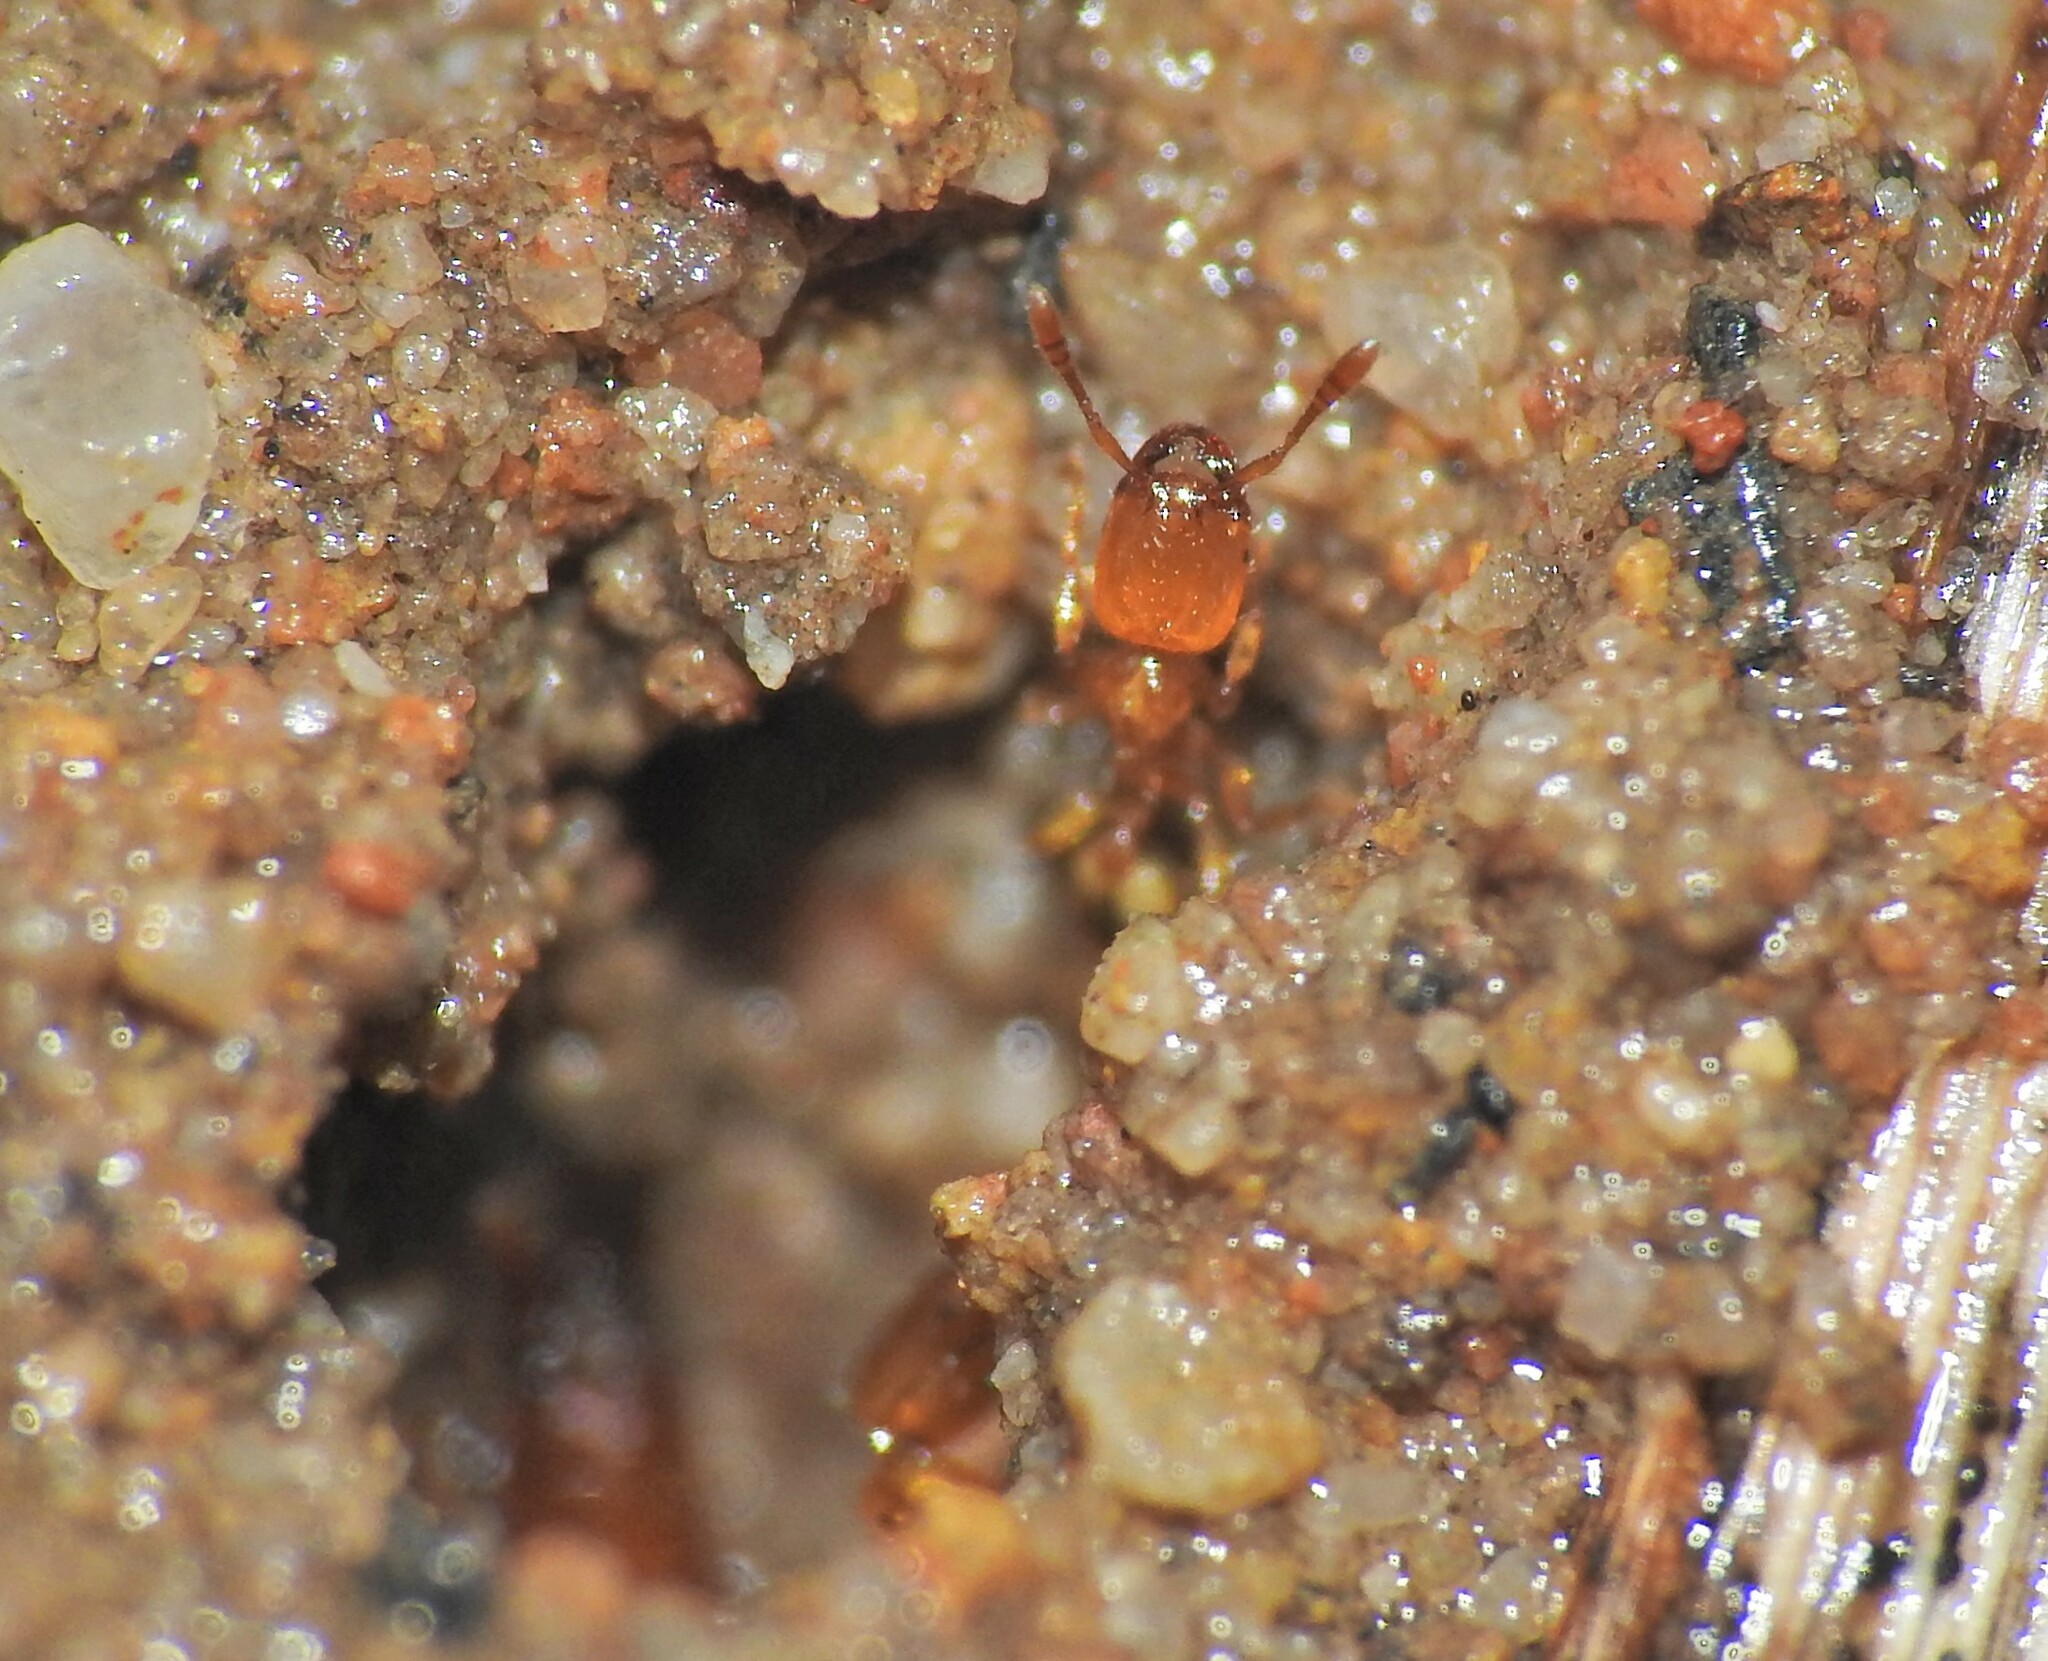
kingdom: Animalia
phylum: Arthropoda
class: Insecta
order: Hymenoptera
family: Formicidae
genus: Pheidole
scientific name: Pheidole
